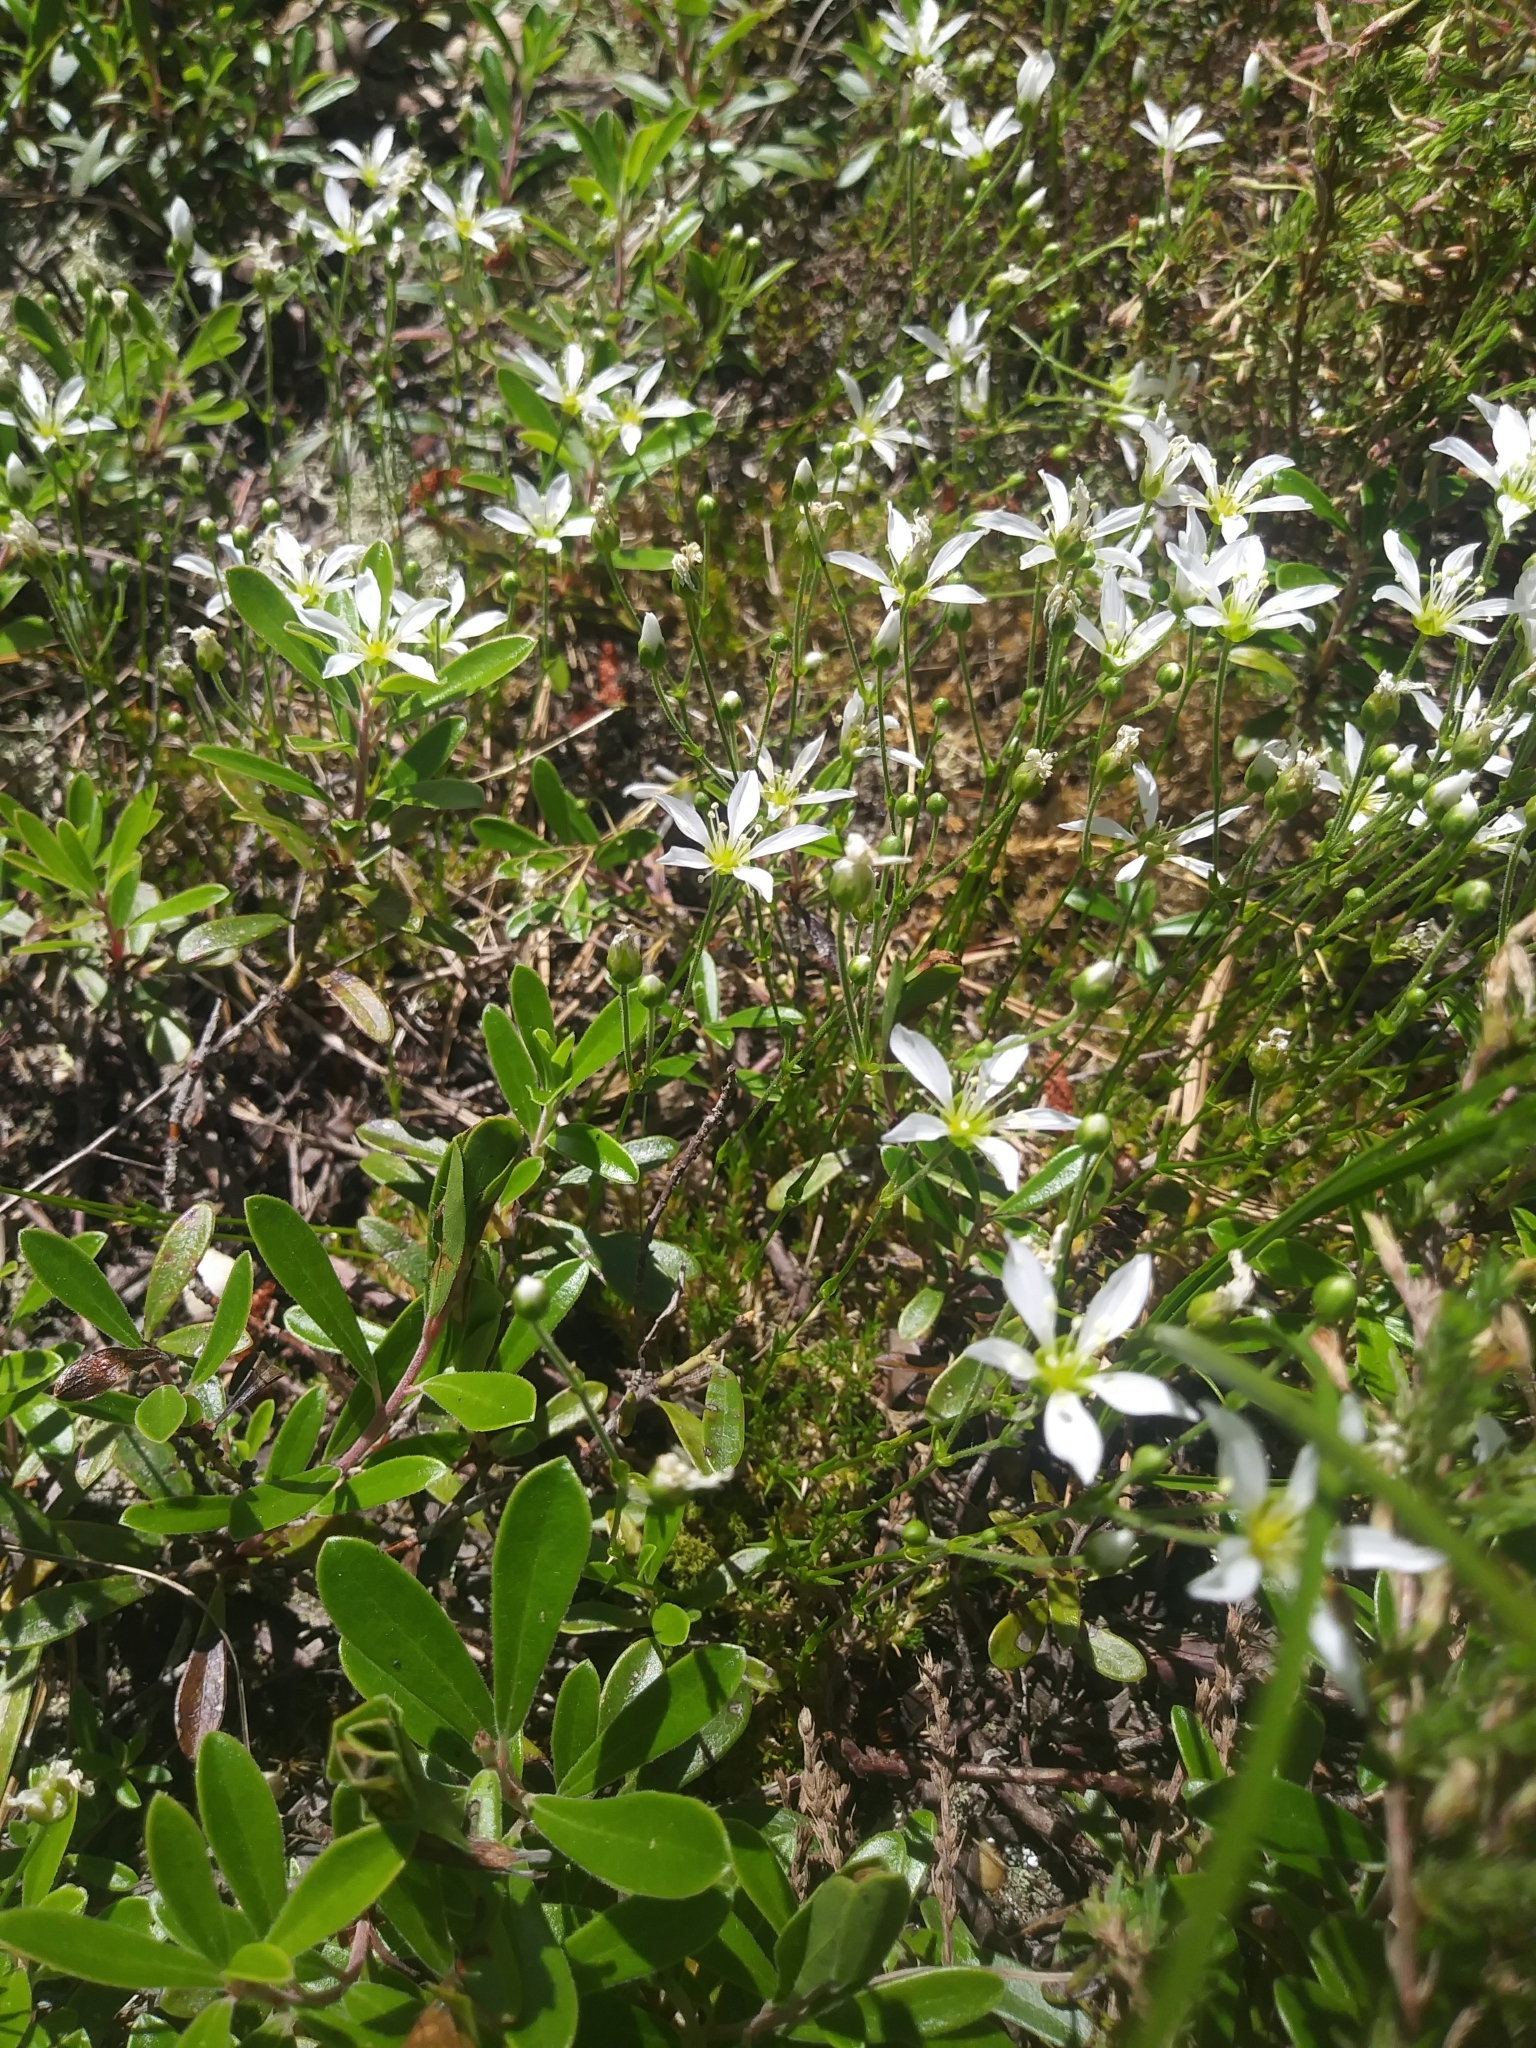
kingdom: Plantae
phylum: Tracheophyta
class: Magnoliopsida
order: Caryophyllales
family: Caryophyllaceae
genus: Geocarpon
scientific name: Geocarpon carolinianum
